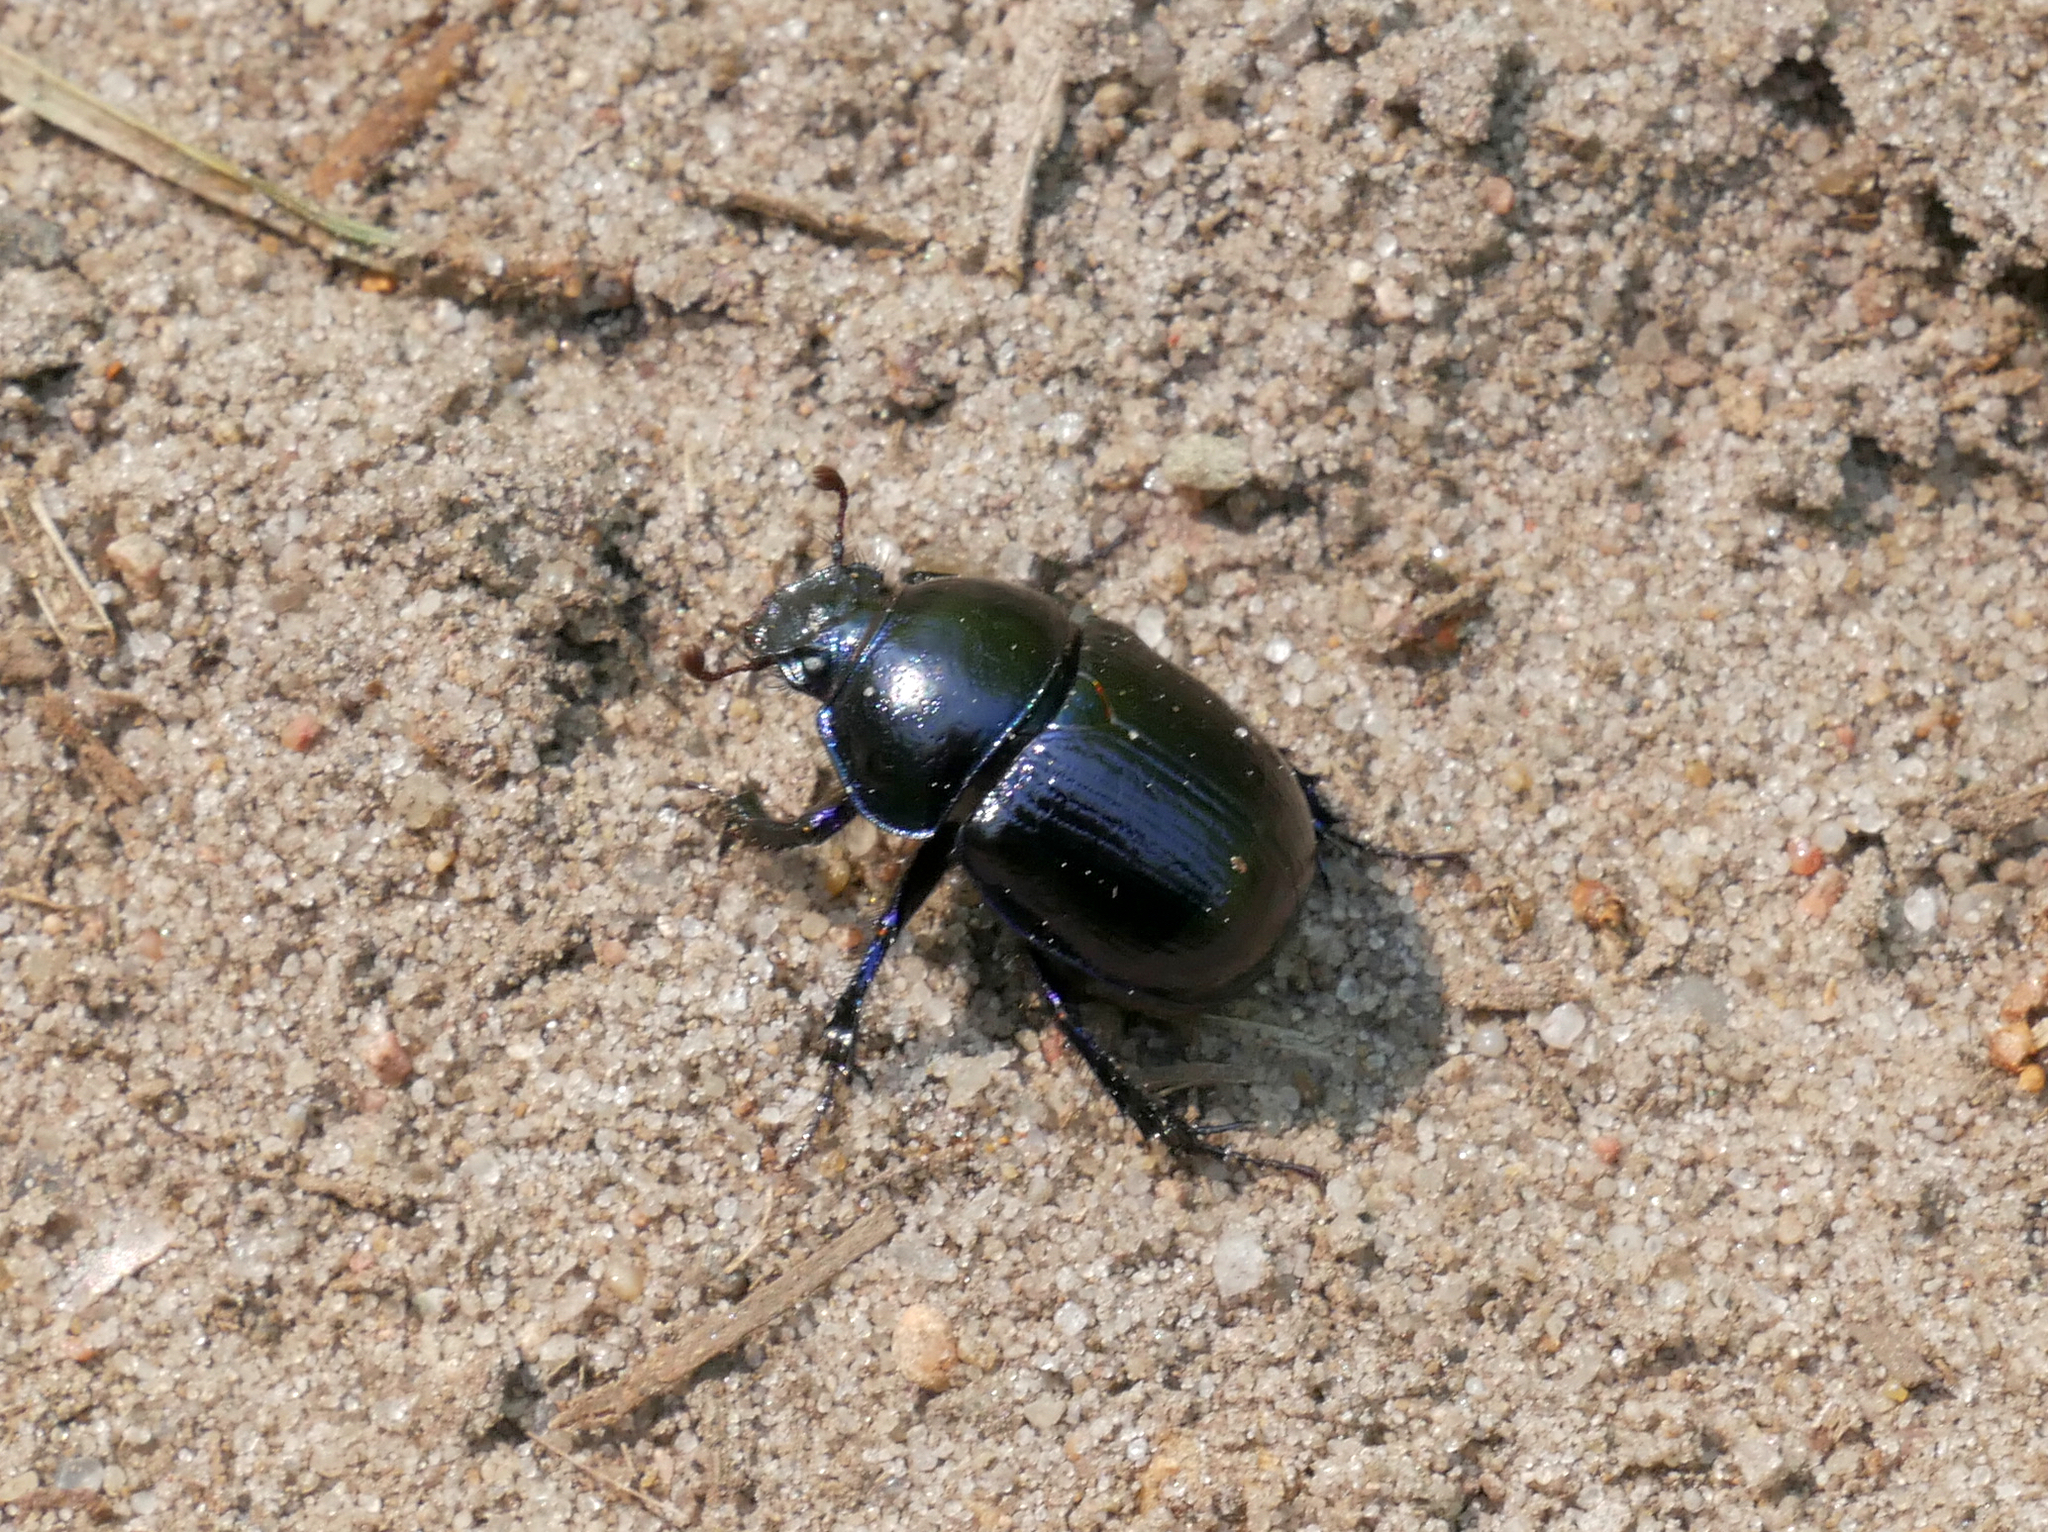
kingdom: Animalia
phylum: Arthropoda
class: Insecta
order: Coleoptera
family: Geotrupidae
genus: Anoplotrupes
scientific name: Anoplotrupes stercorosus
